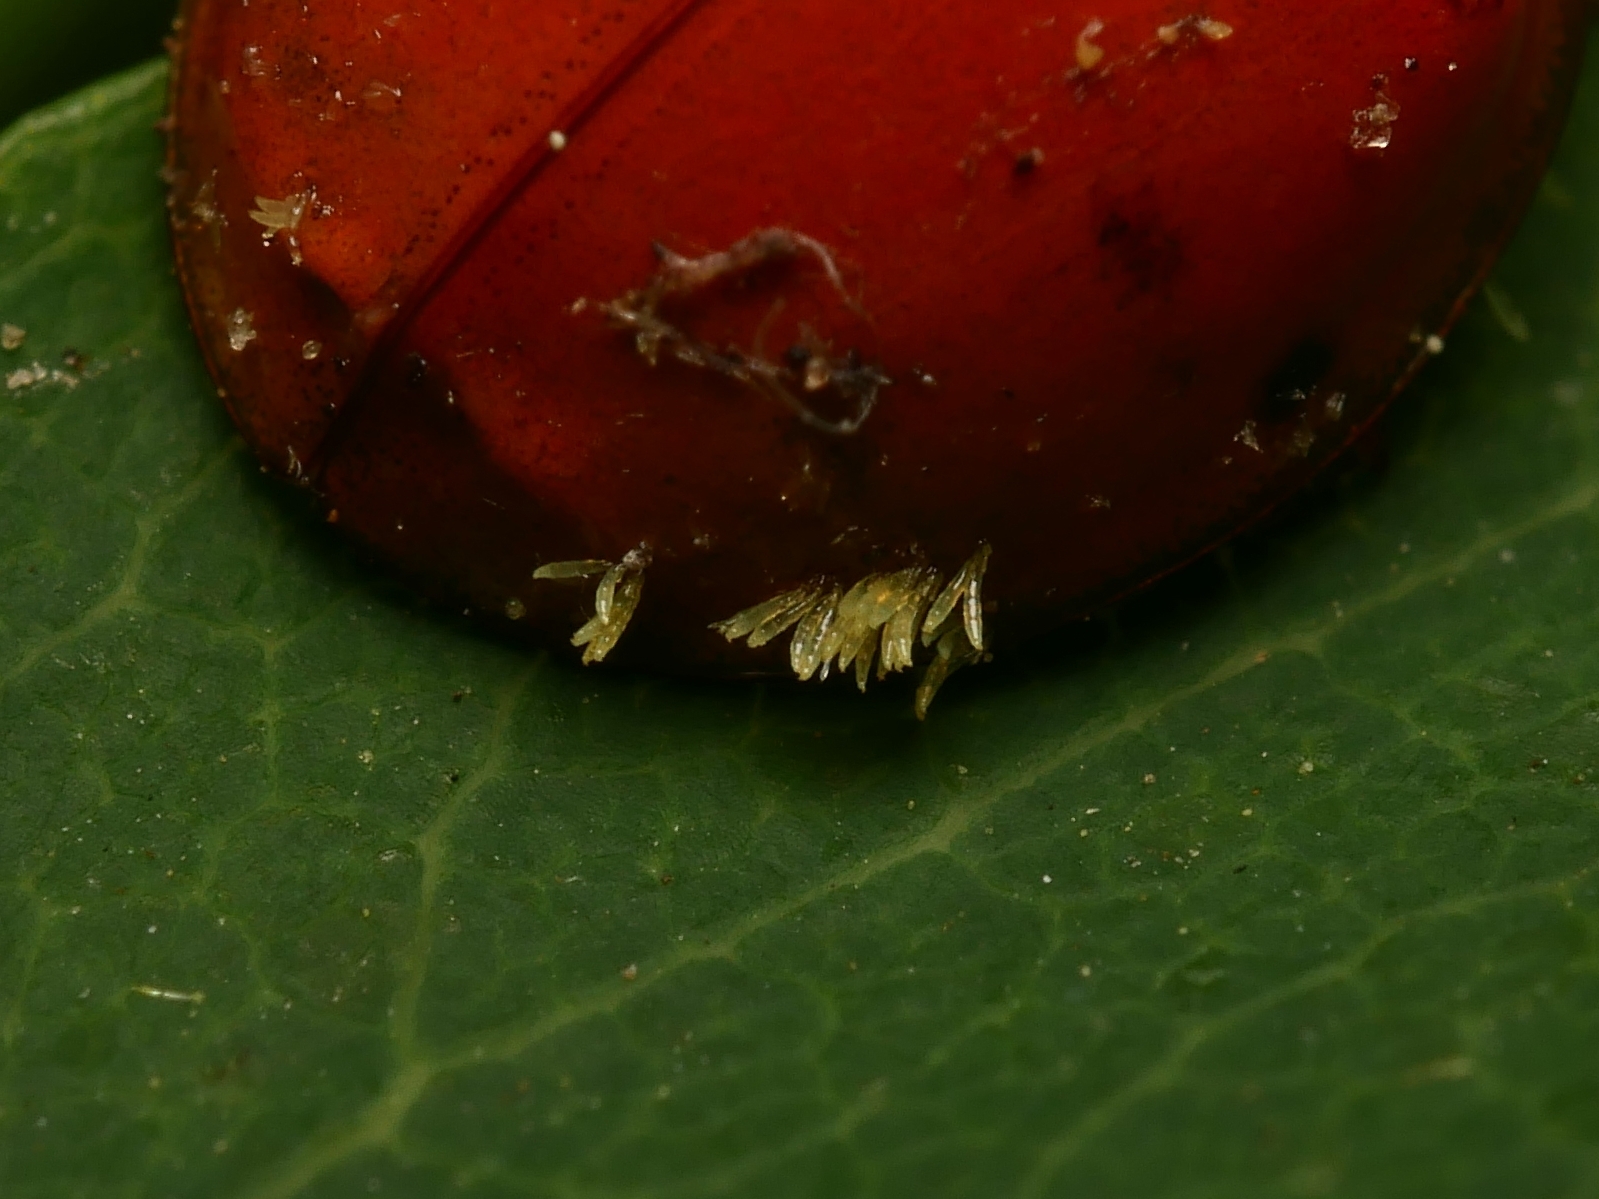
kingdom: Fungi
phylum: Ascomycota
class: Laboulbeniomycetes
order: Laboulbeniales
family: Laboulbeniaceae
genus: Hesperomyces
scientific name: Hesperomyces harmoniae
